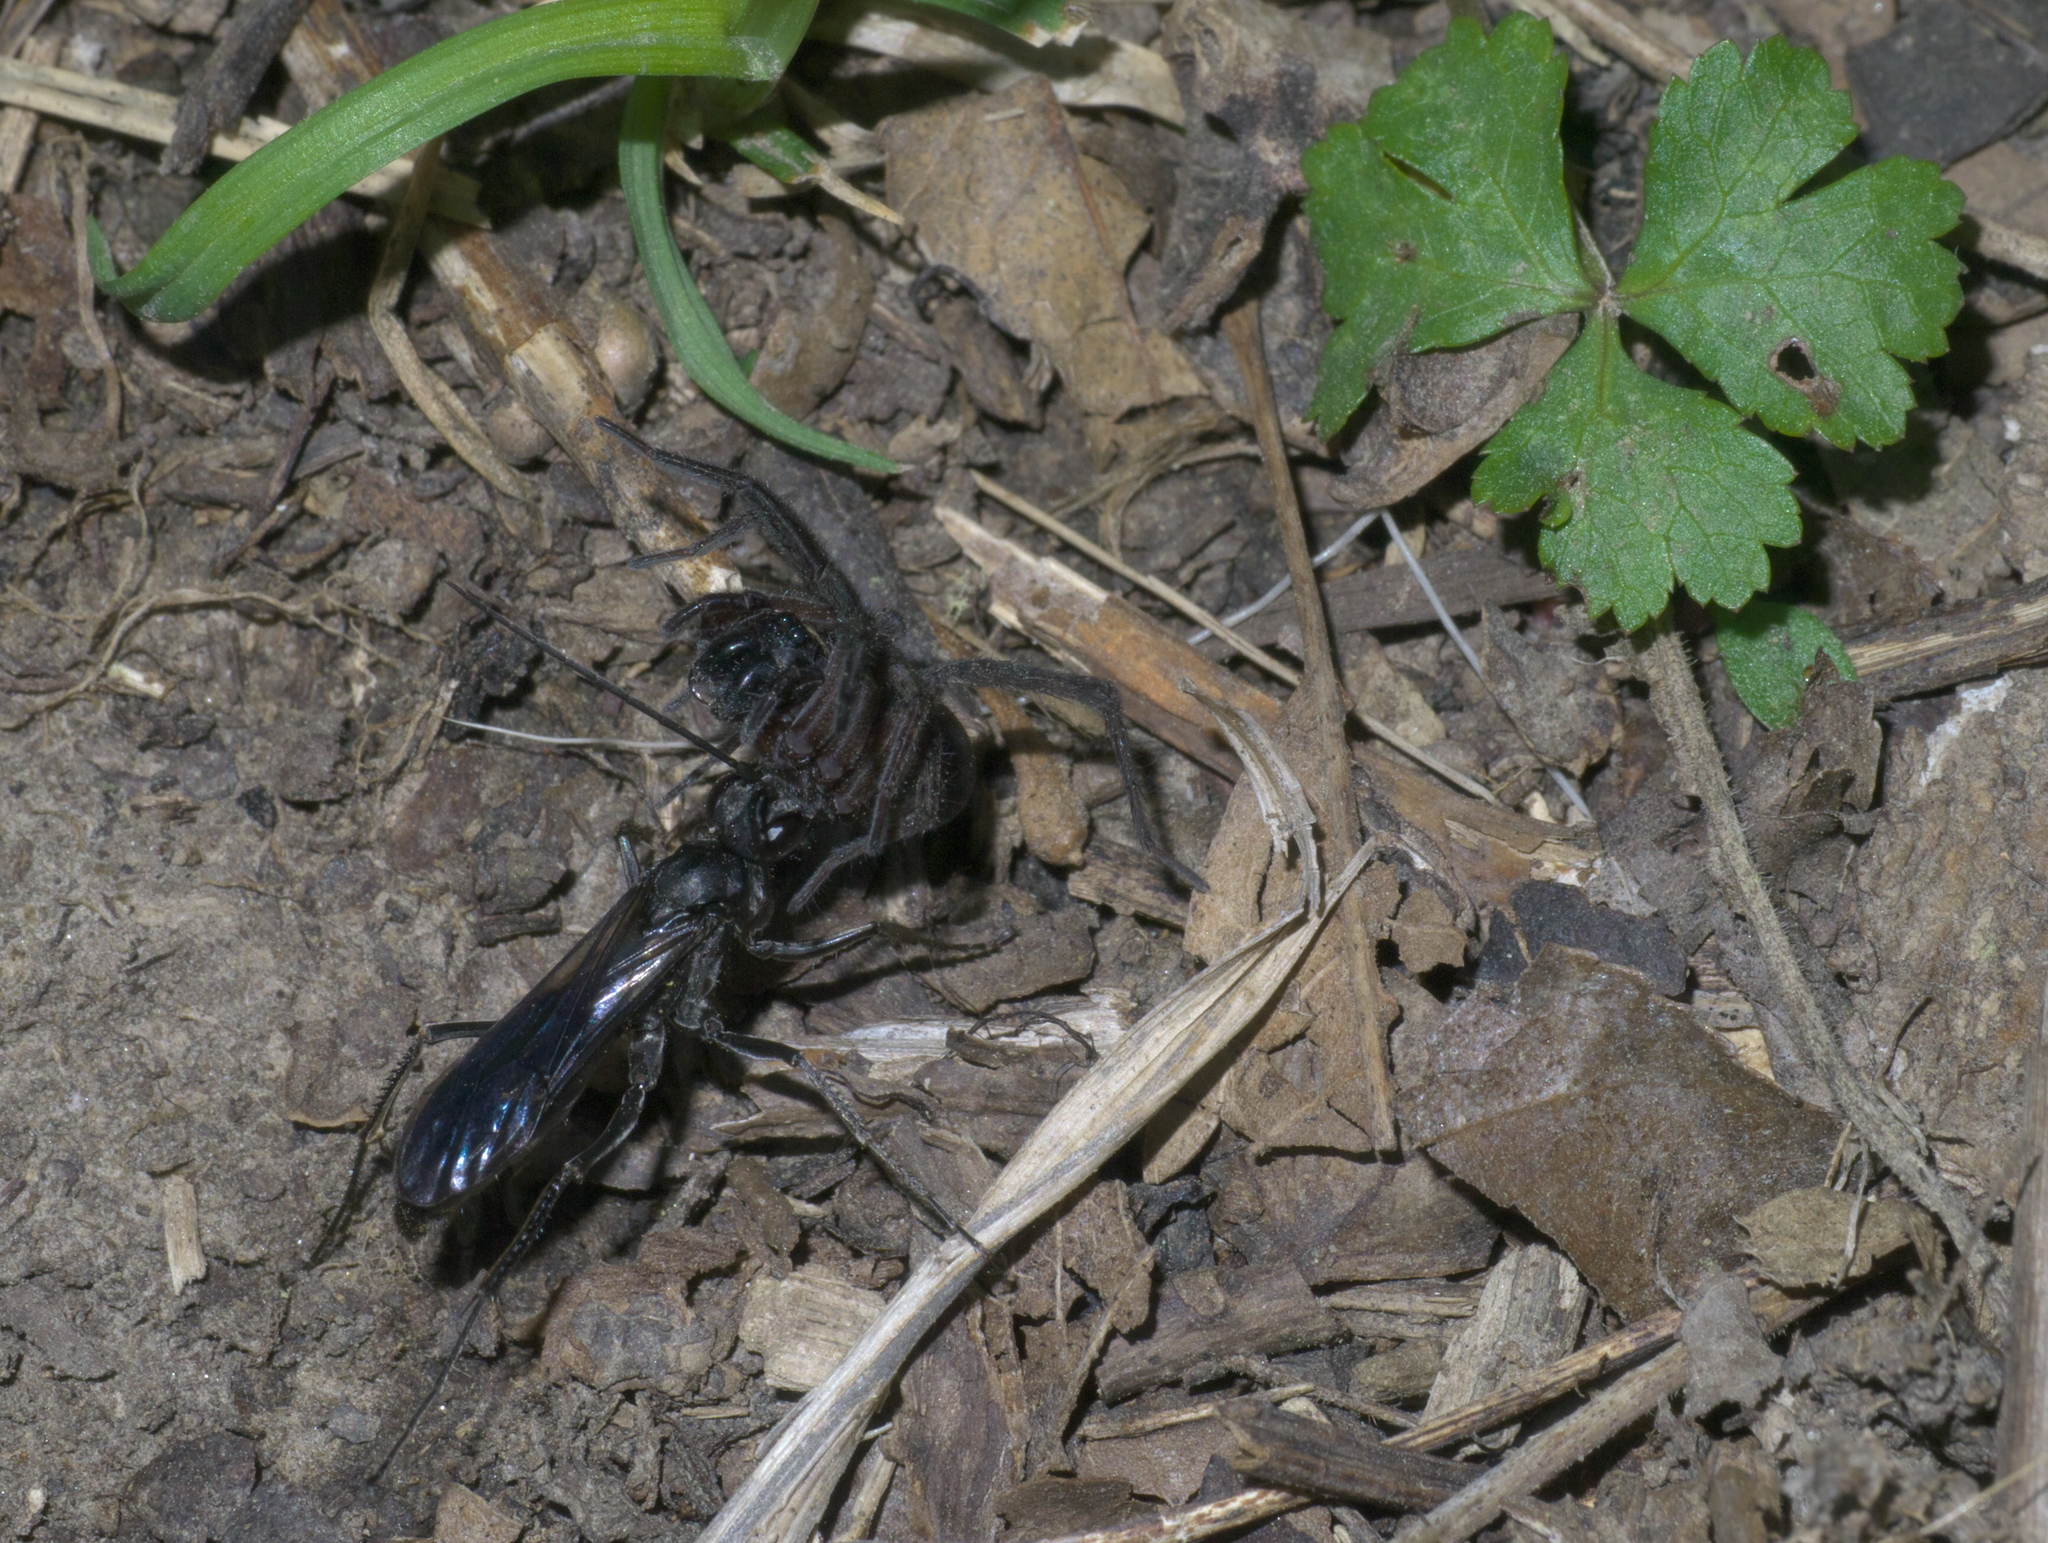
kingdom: Animalia
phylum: Arthropoda
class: Insecta
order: Hymenoptera
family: Pompilidae
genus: Priocnemis
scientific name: Priocnemis minorata
